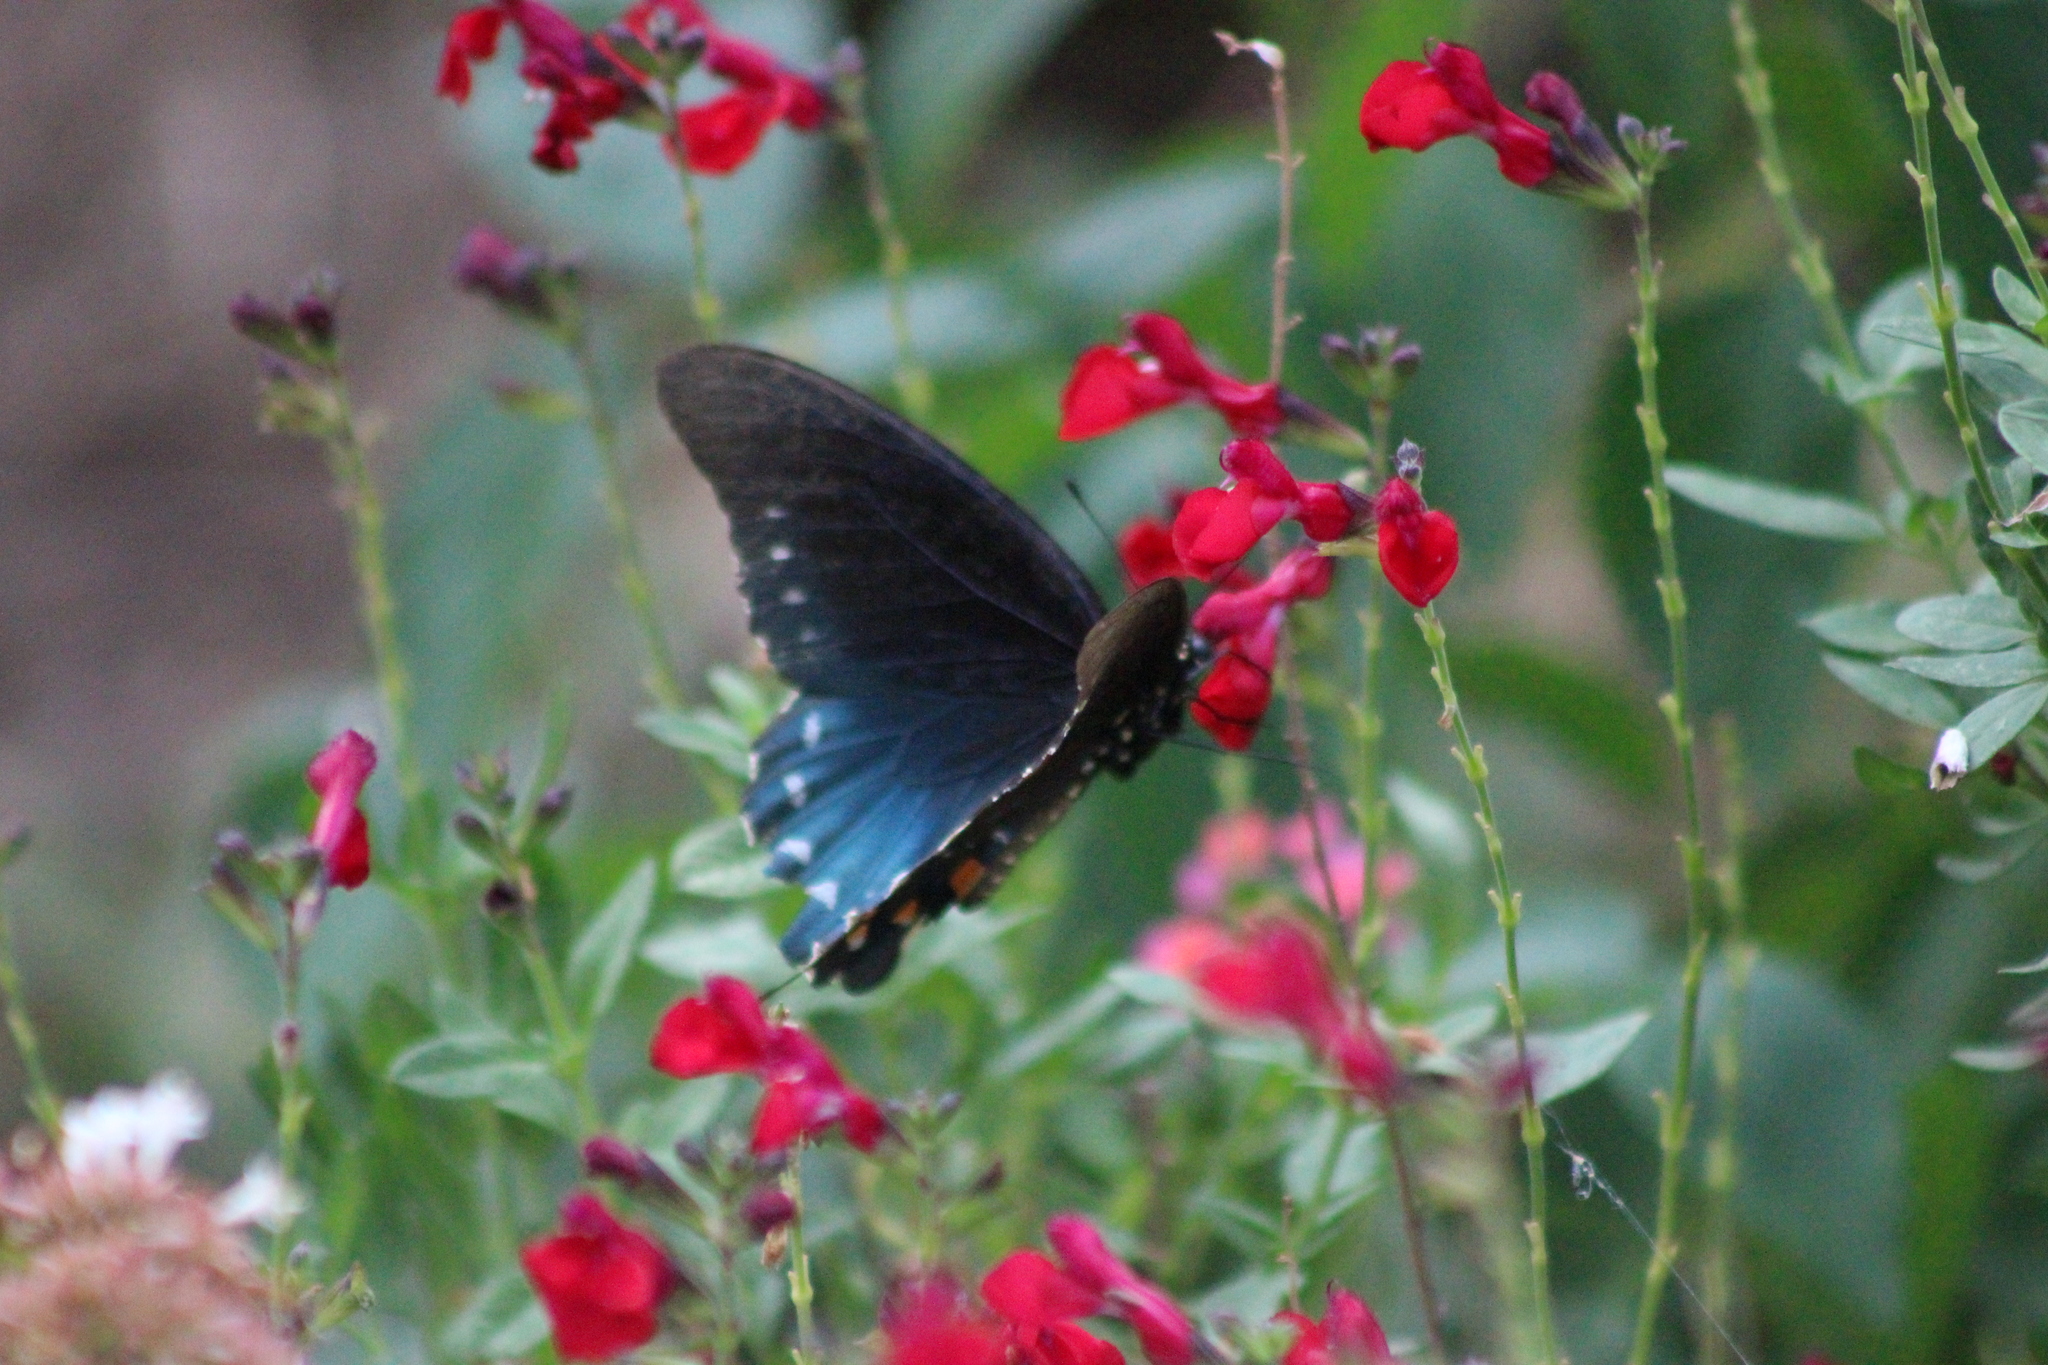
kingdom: Animalia
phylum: Arthropoda
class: Insecta
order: Lepidoptera
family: Papilionidae
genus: Battus
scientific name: Battus philenor
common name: Pipevine swallowtail
